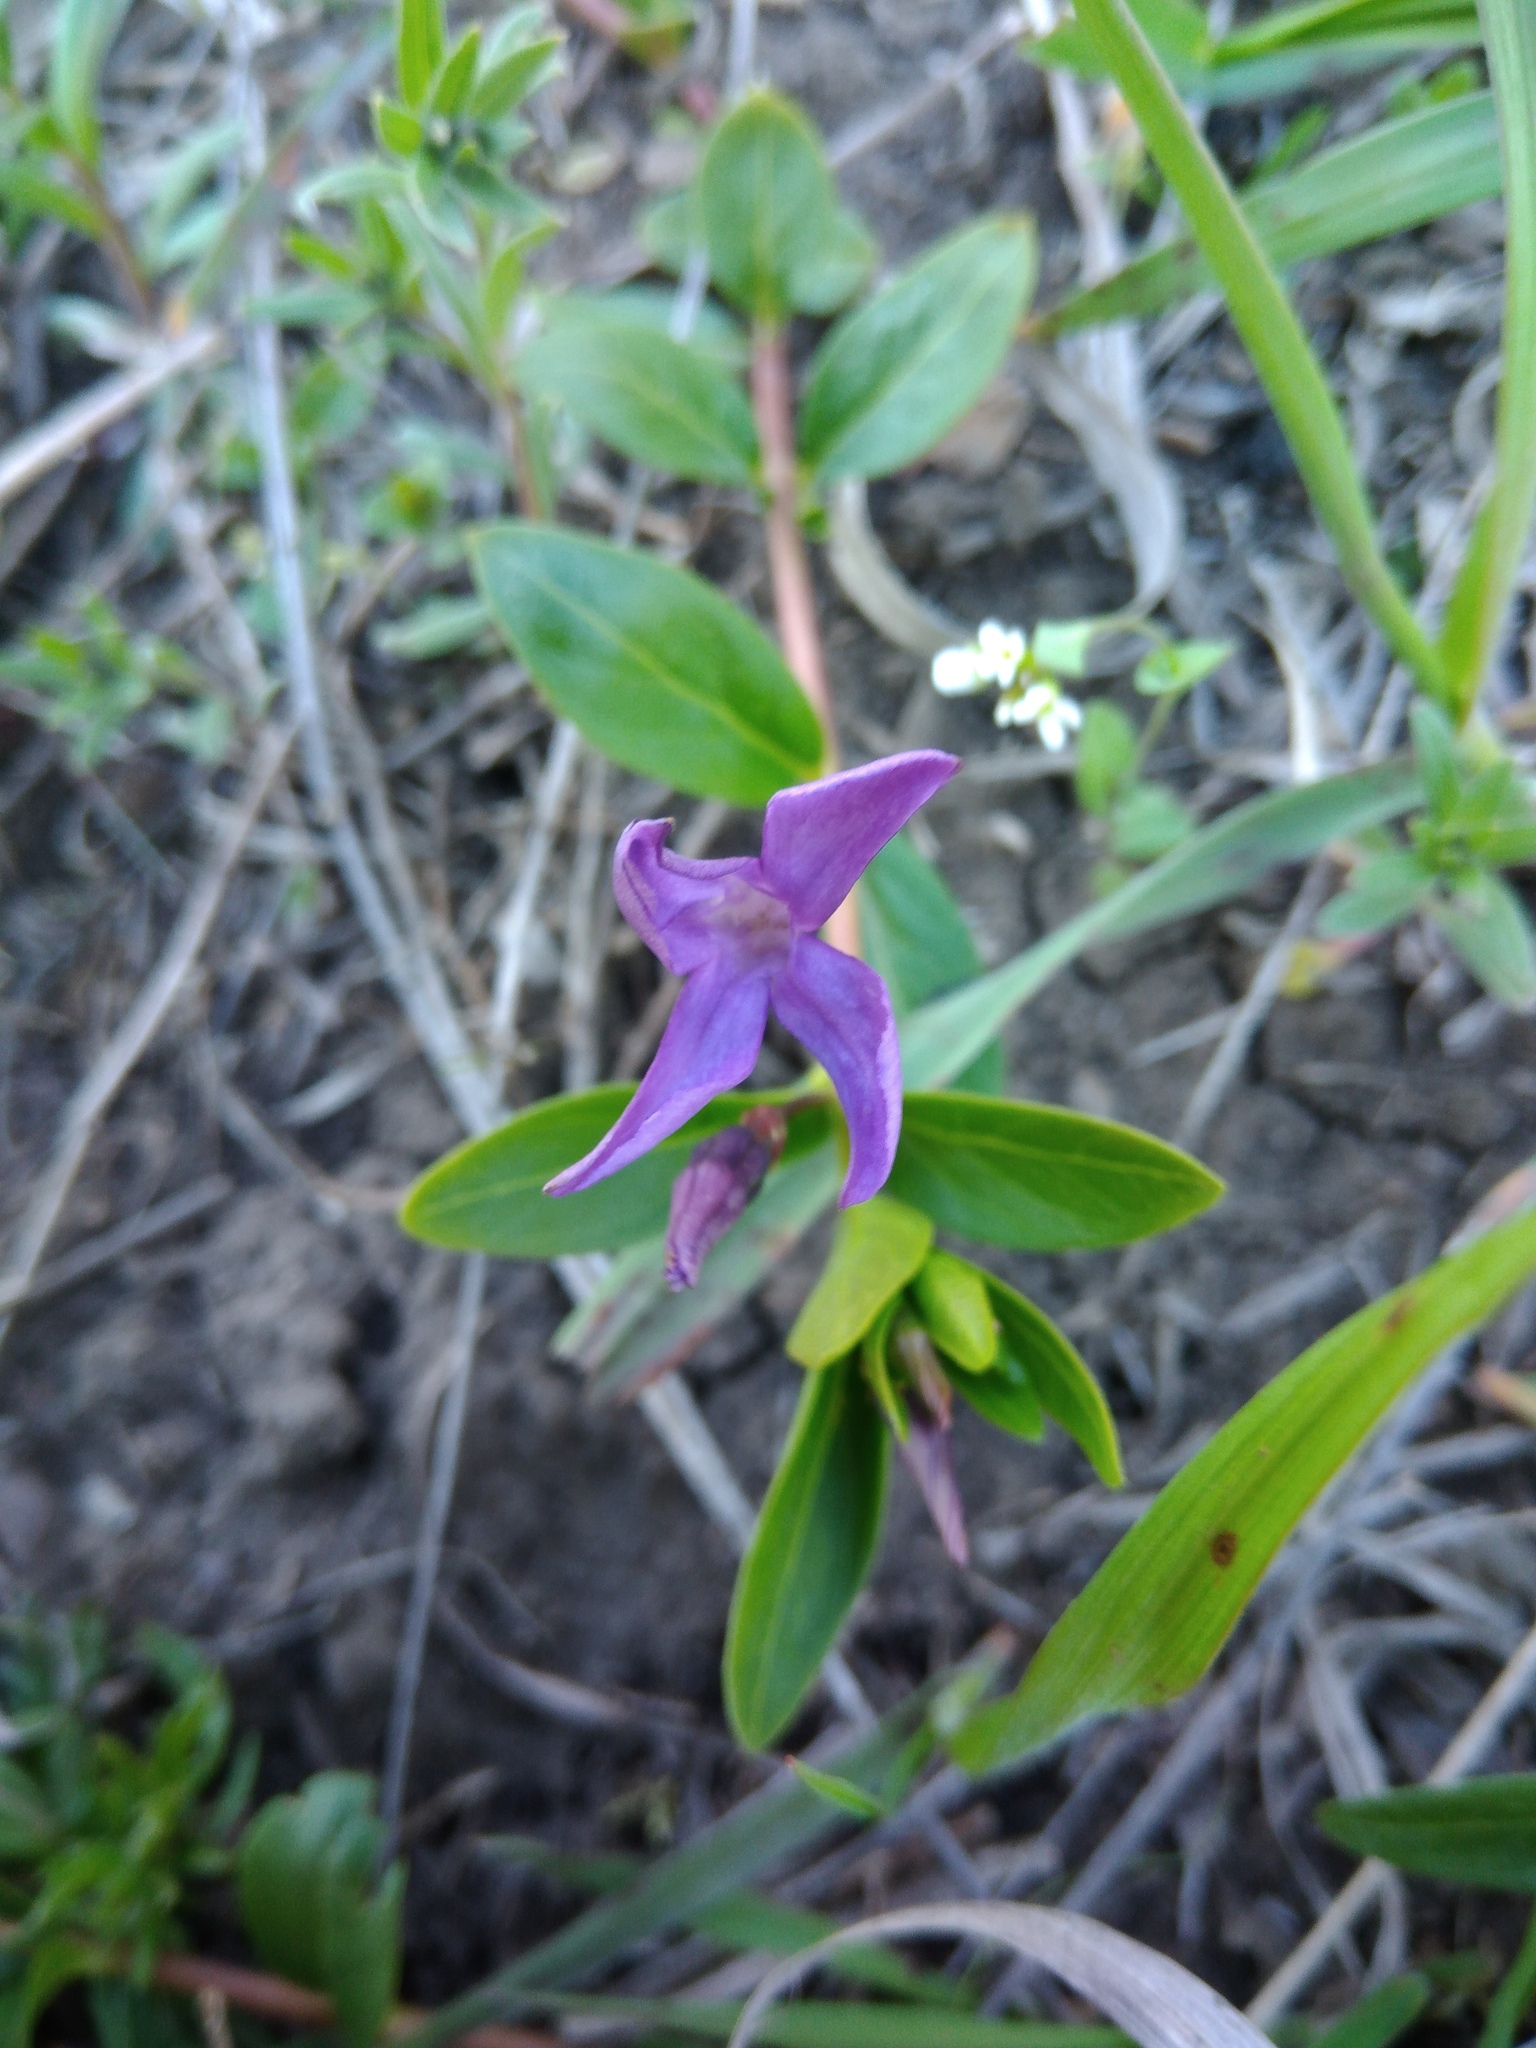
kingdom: Plantae
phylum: Tracheophyta
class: Magnoliopsida
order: Gentianales
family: Apocynaceae
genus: Vinca
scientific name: Vinca herbacea
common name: Herbaceous periwinkle
